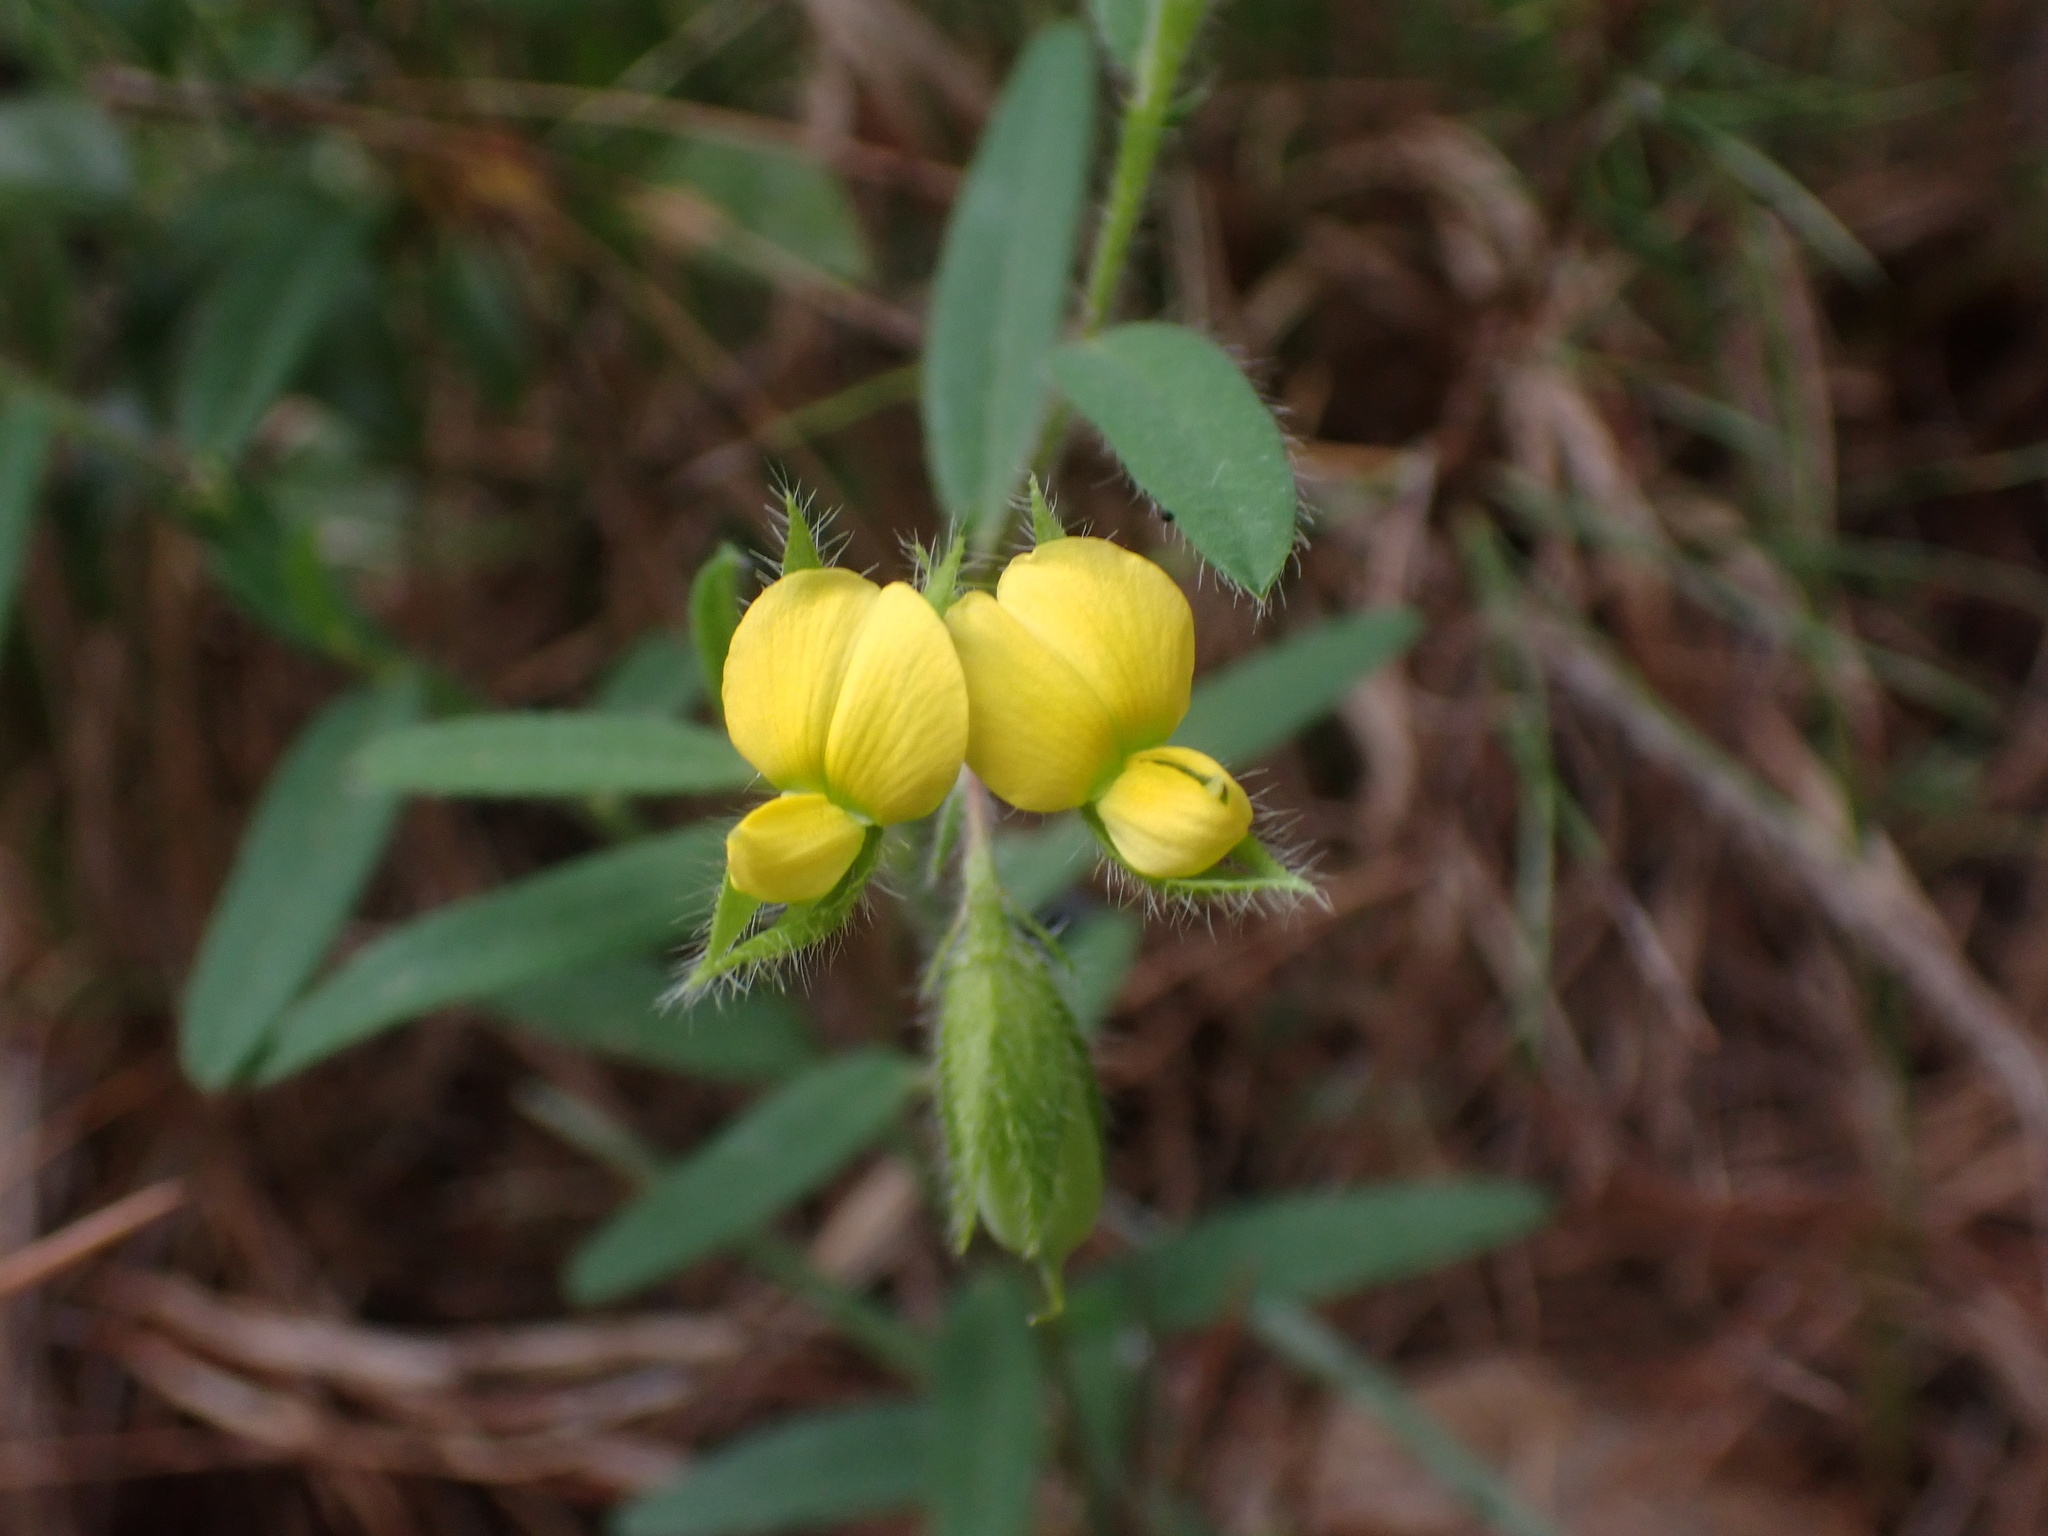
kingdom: Plantae
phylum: Tracheophyta
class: Magnoliopsida
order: Fabales
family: Fabaceae
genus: Crotalaria
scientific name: Crotalaria sagittalis
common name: Arrowhead rattlebox
